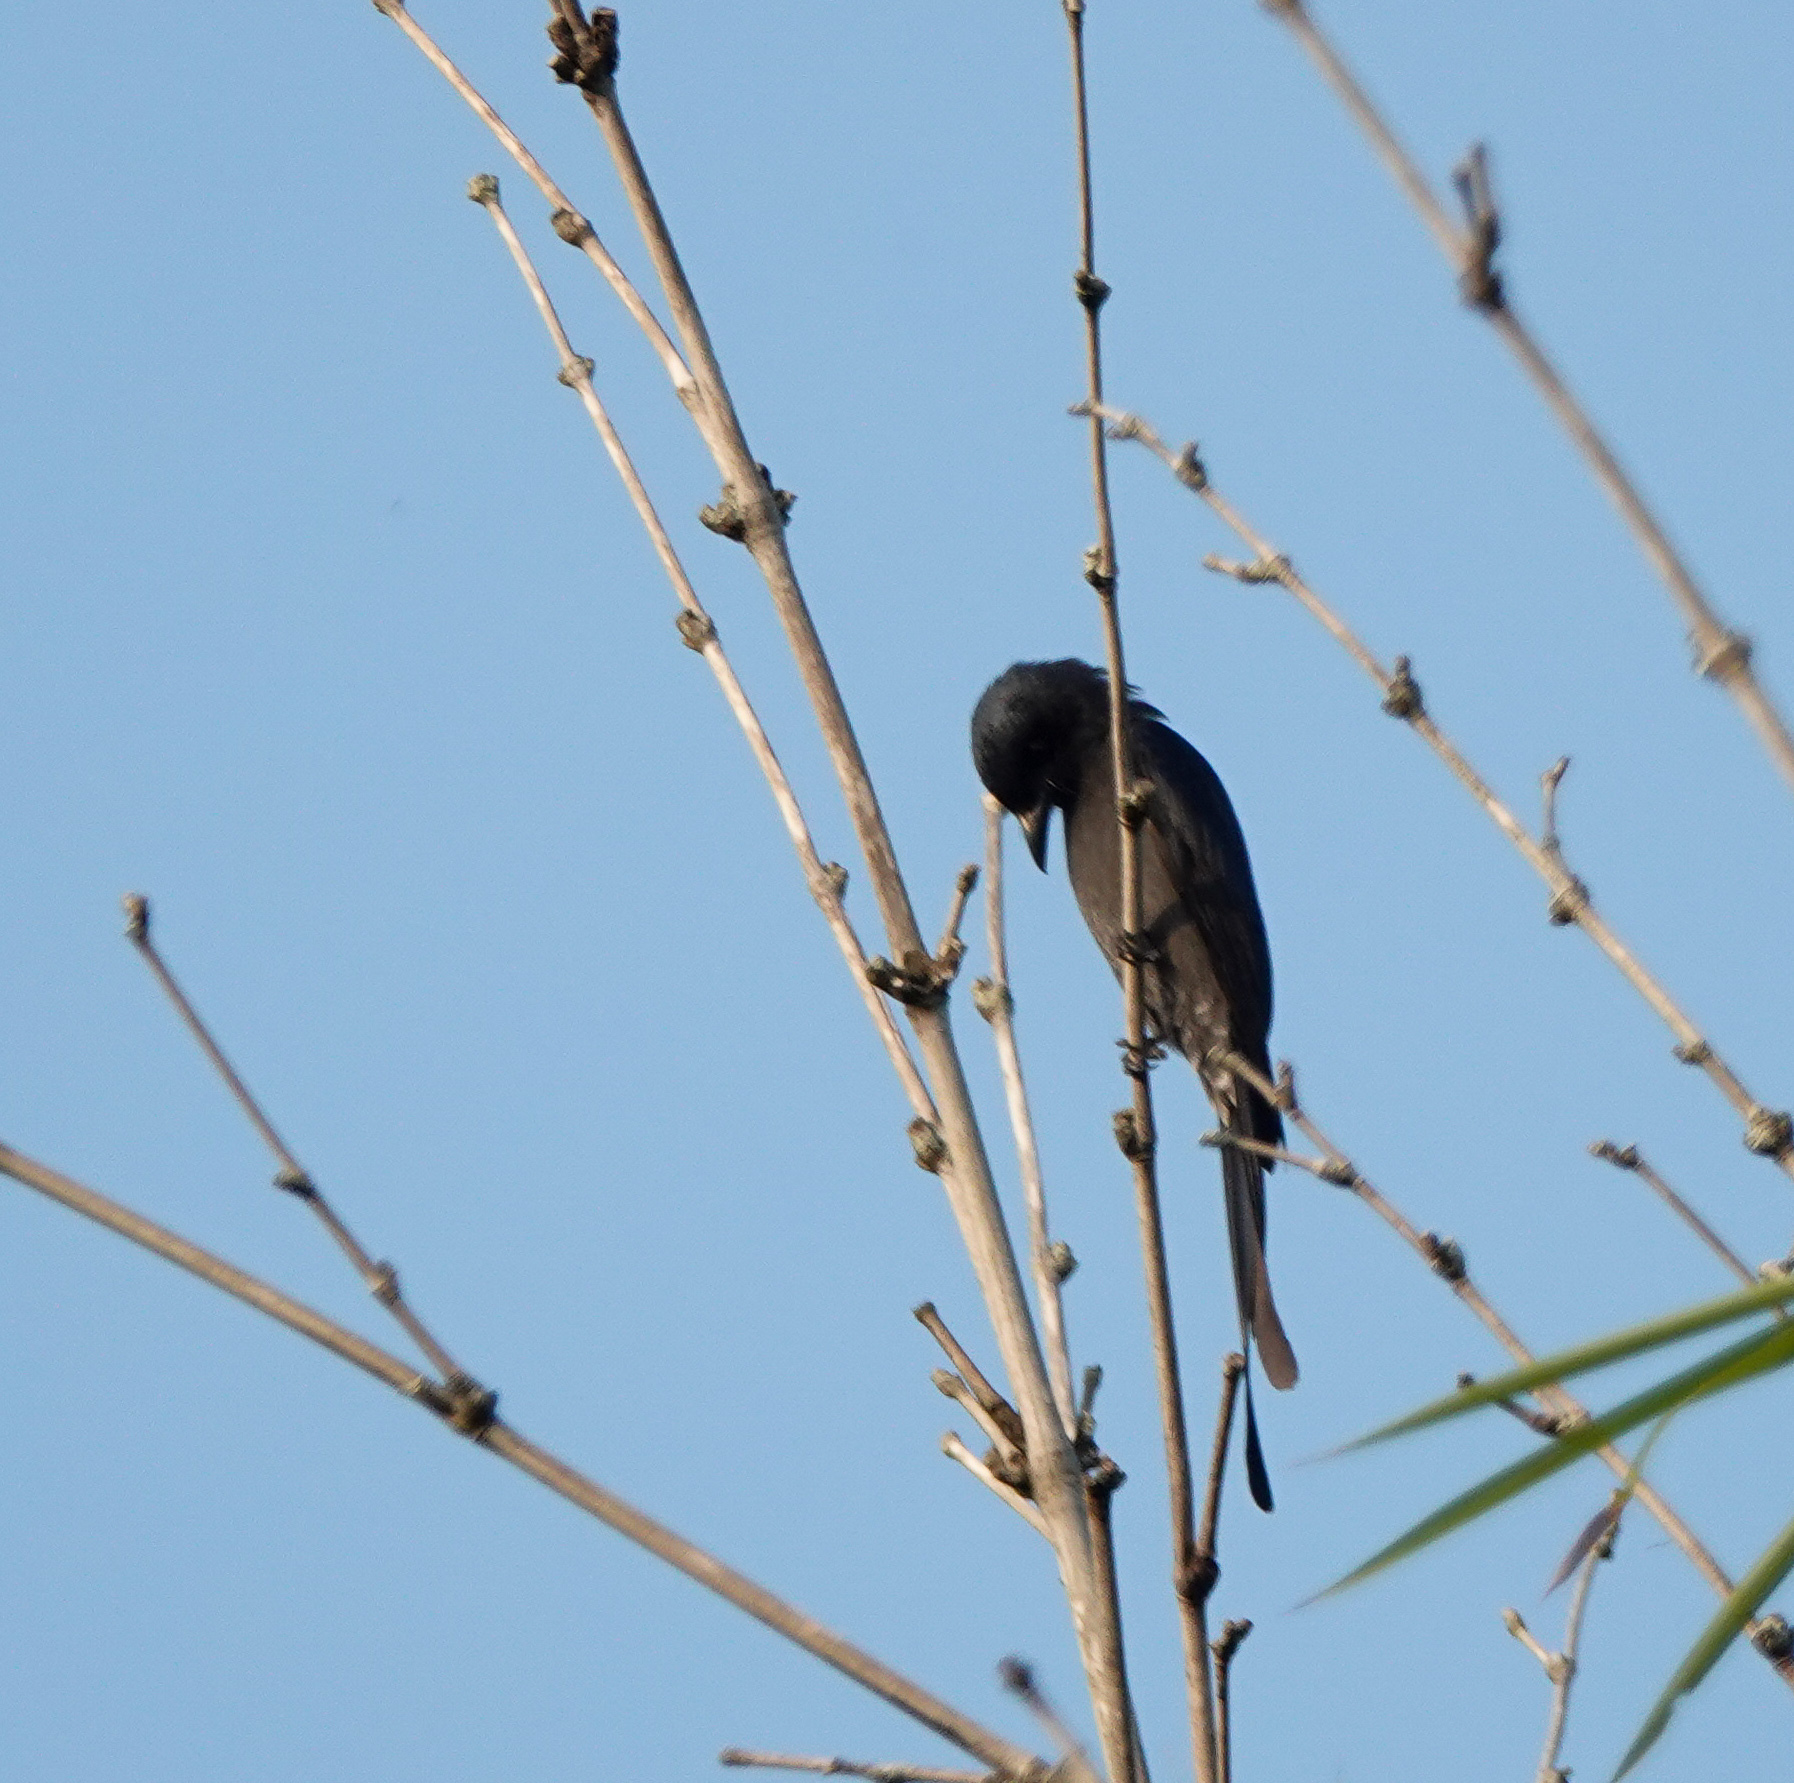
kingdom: Animalia
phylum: Chordata
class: Aves
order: Passeriformes
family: Dicruridae
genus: Dicrurus
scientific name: Dicrurus macrocercus
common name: Black drongo
